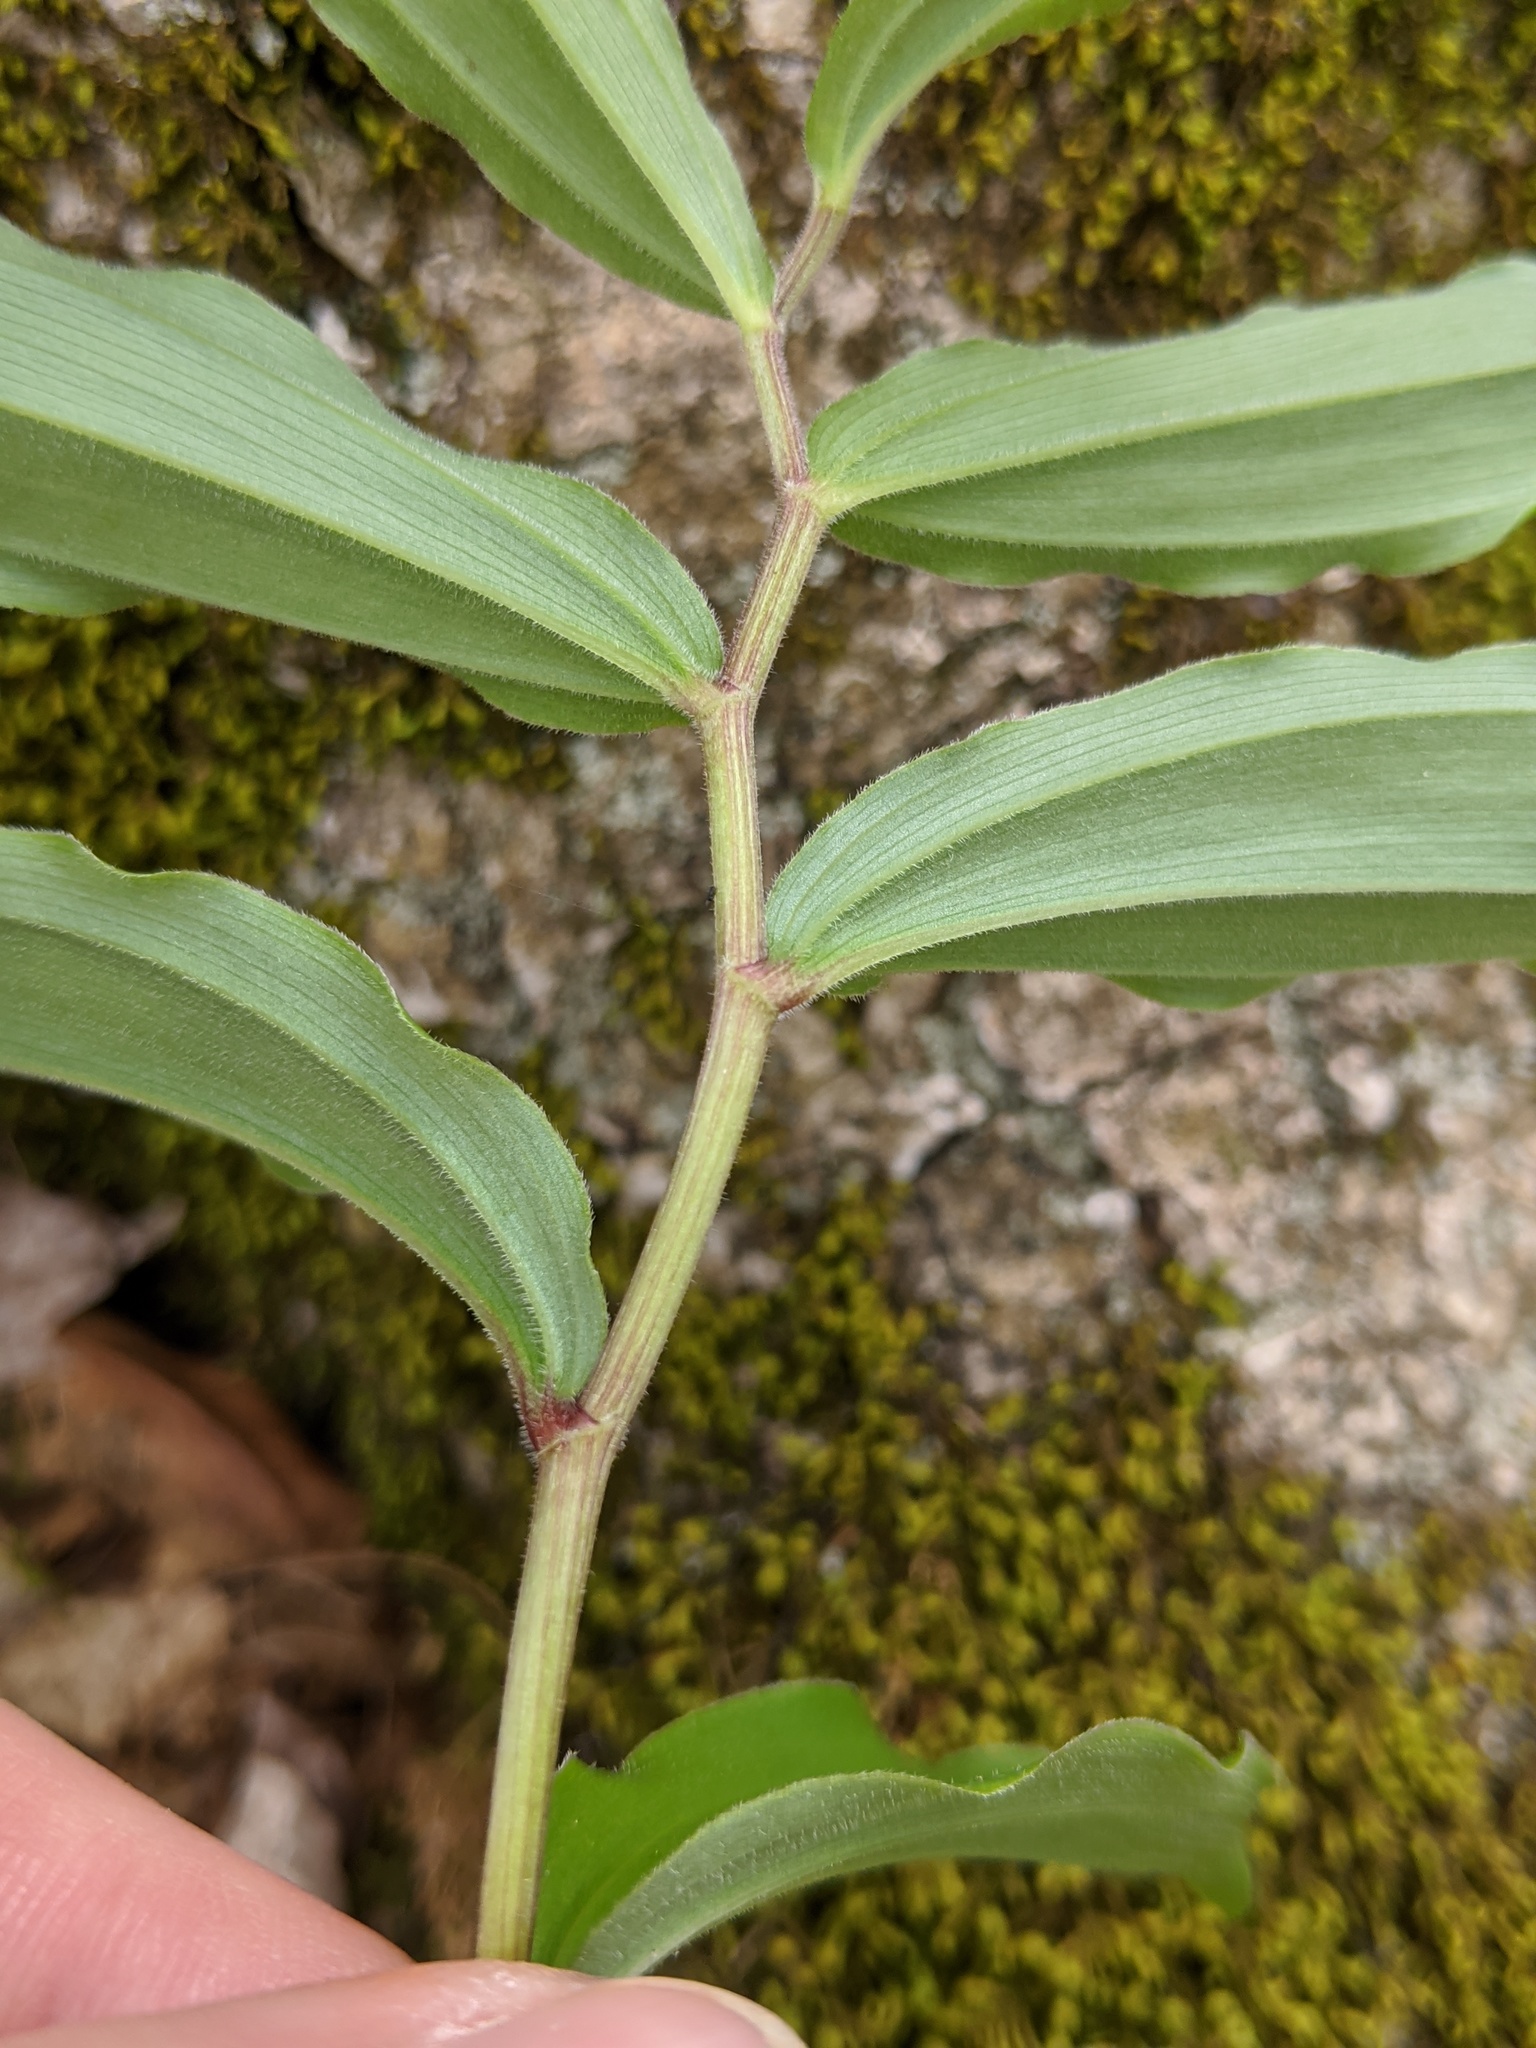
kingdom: Plantae
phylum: Tracheophyta
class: Liliopsida
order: Asparagales
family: Asparagaceae
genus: Maianthemum
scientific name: Maianthemum racemosum
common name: False spikenard
